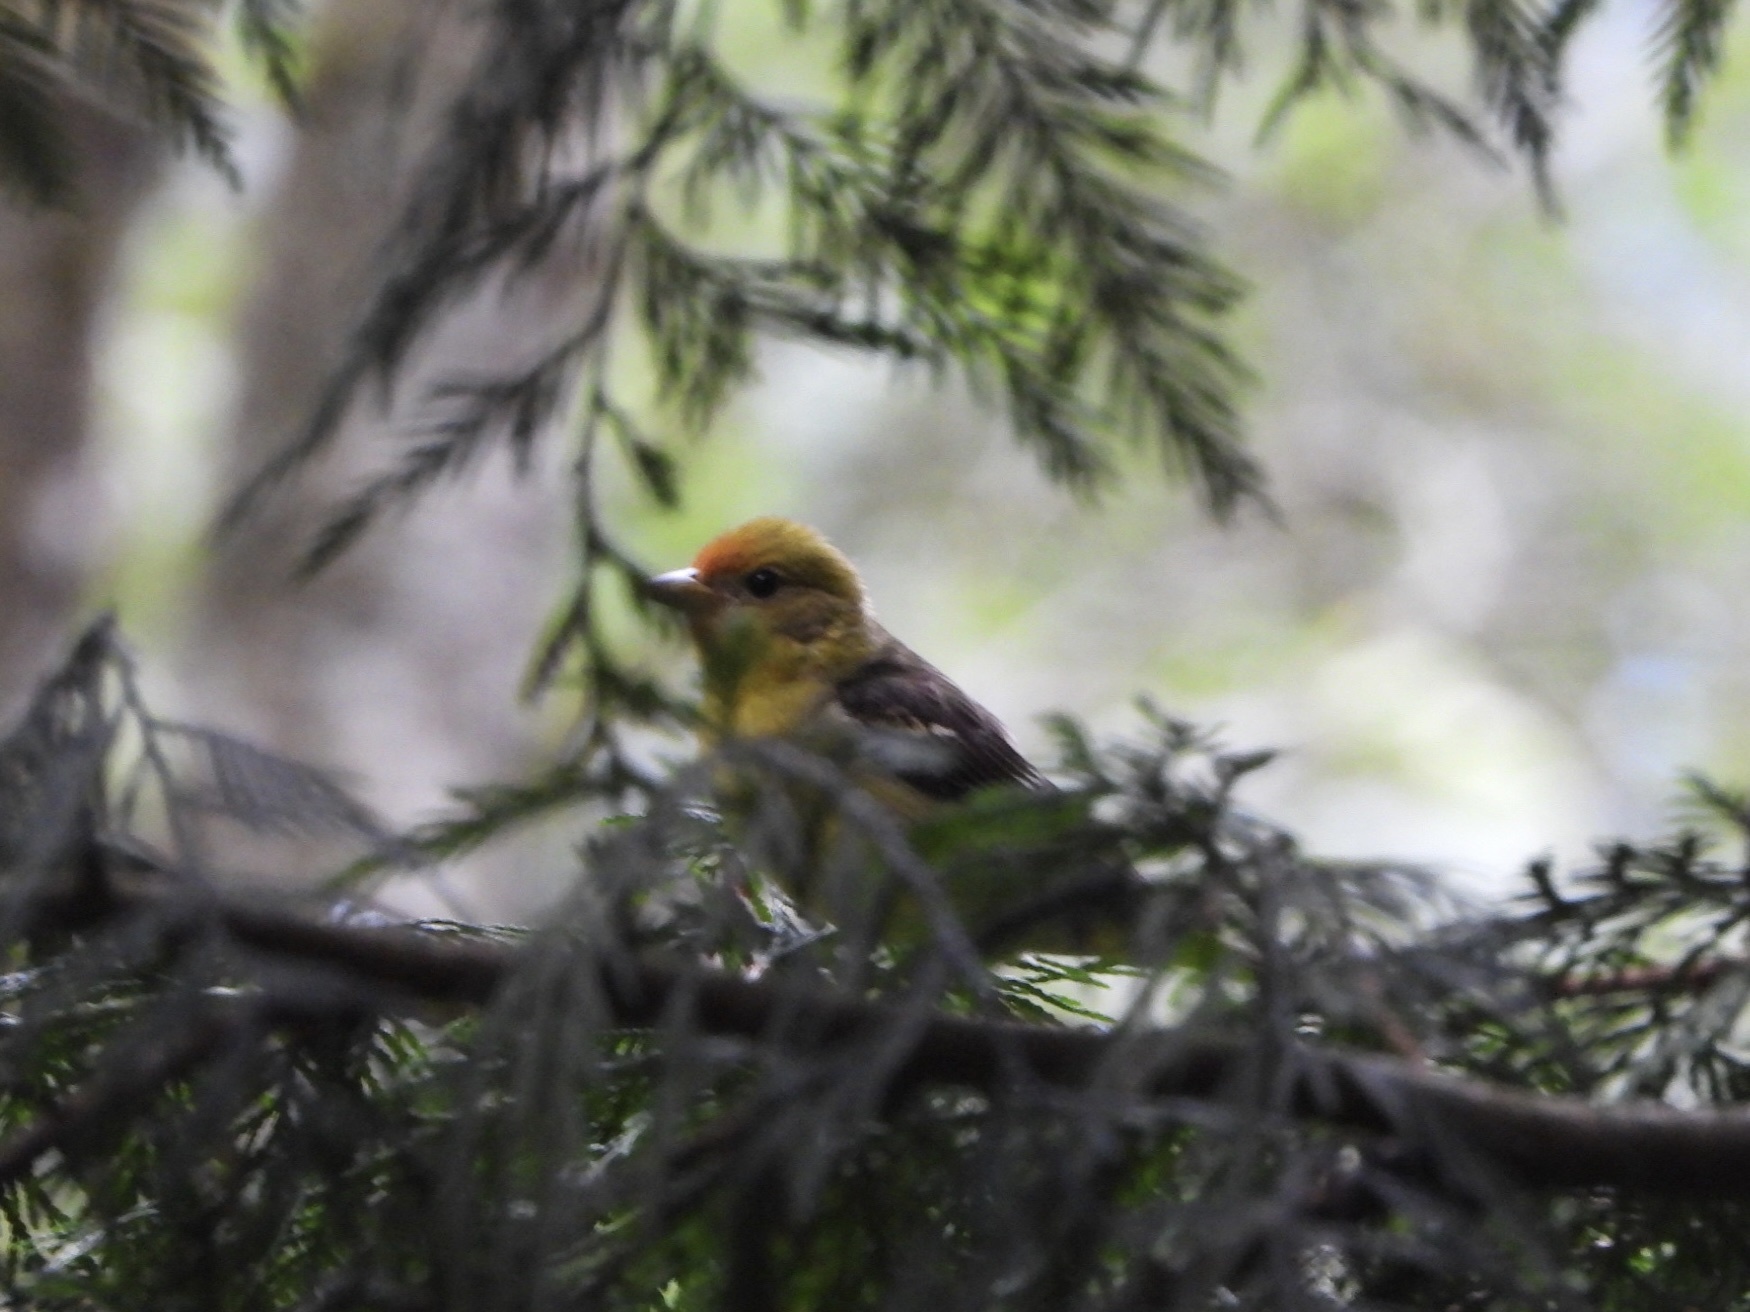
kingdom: Animalia
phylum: Chordata
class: Aves
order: Passeriformes
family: Cardinalidae
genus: Piranga
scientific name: Piranga ludoviciana
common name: Western tanager
